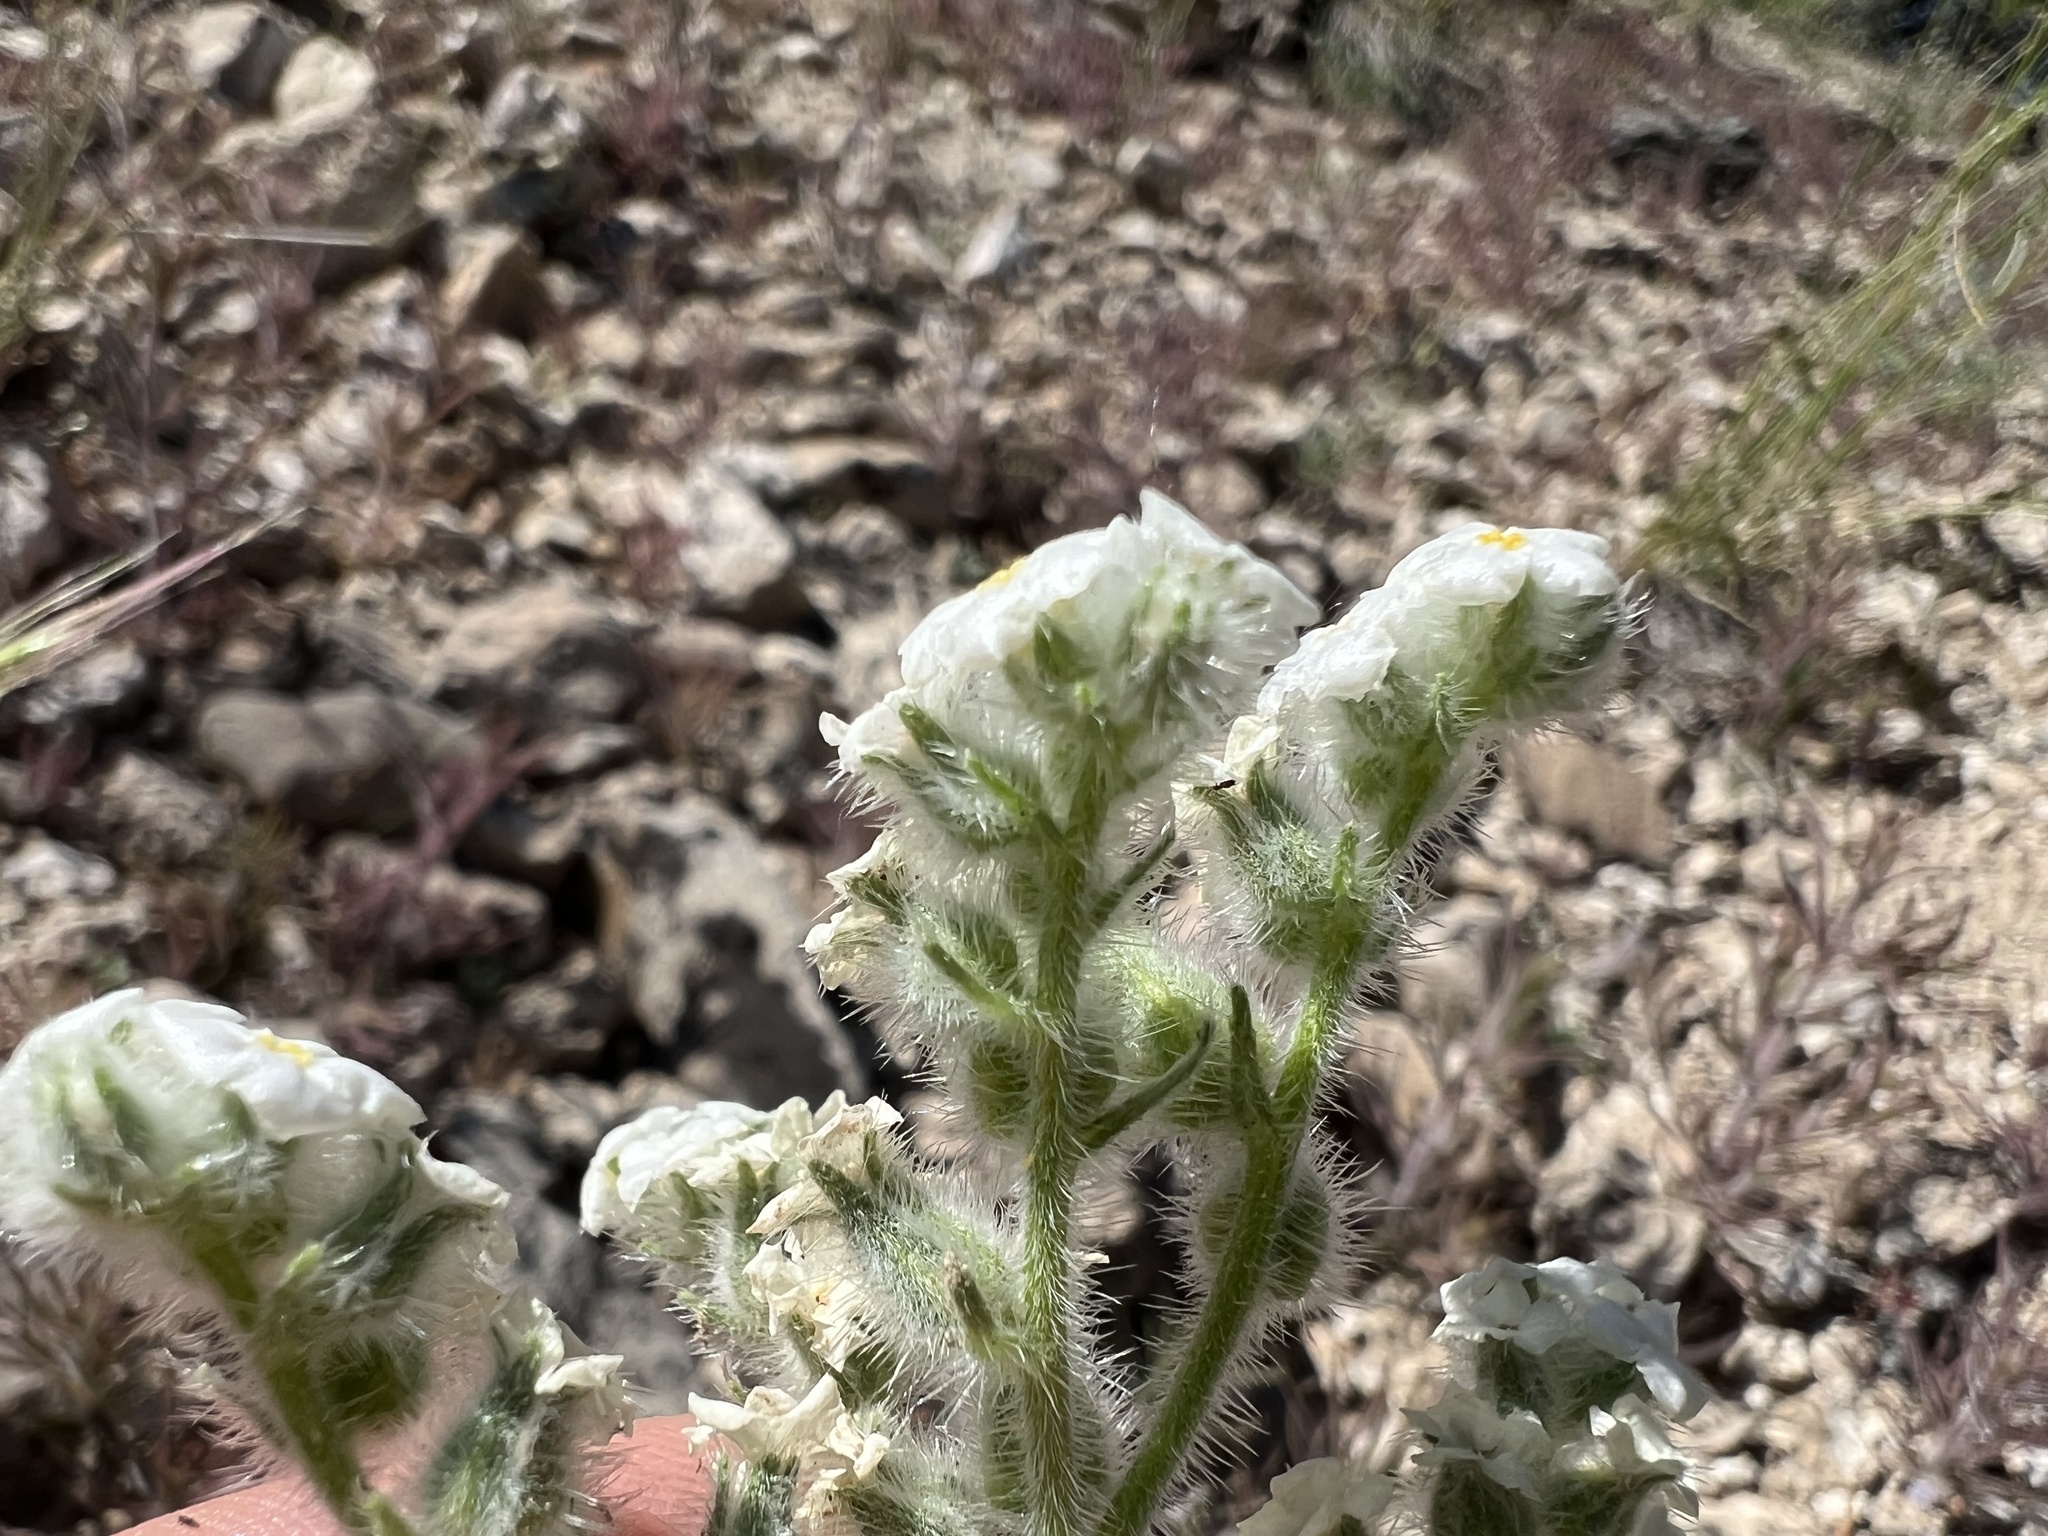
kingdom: Plantae
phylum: Tracheophyta
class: Magnoliopsida
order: Boraginales
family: Boraginaceae
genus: Oreocarya
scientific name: Oreocarya hoffmannii
